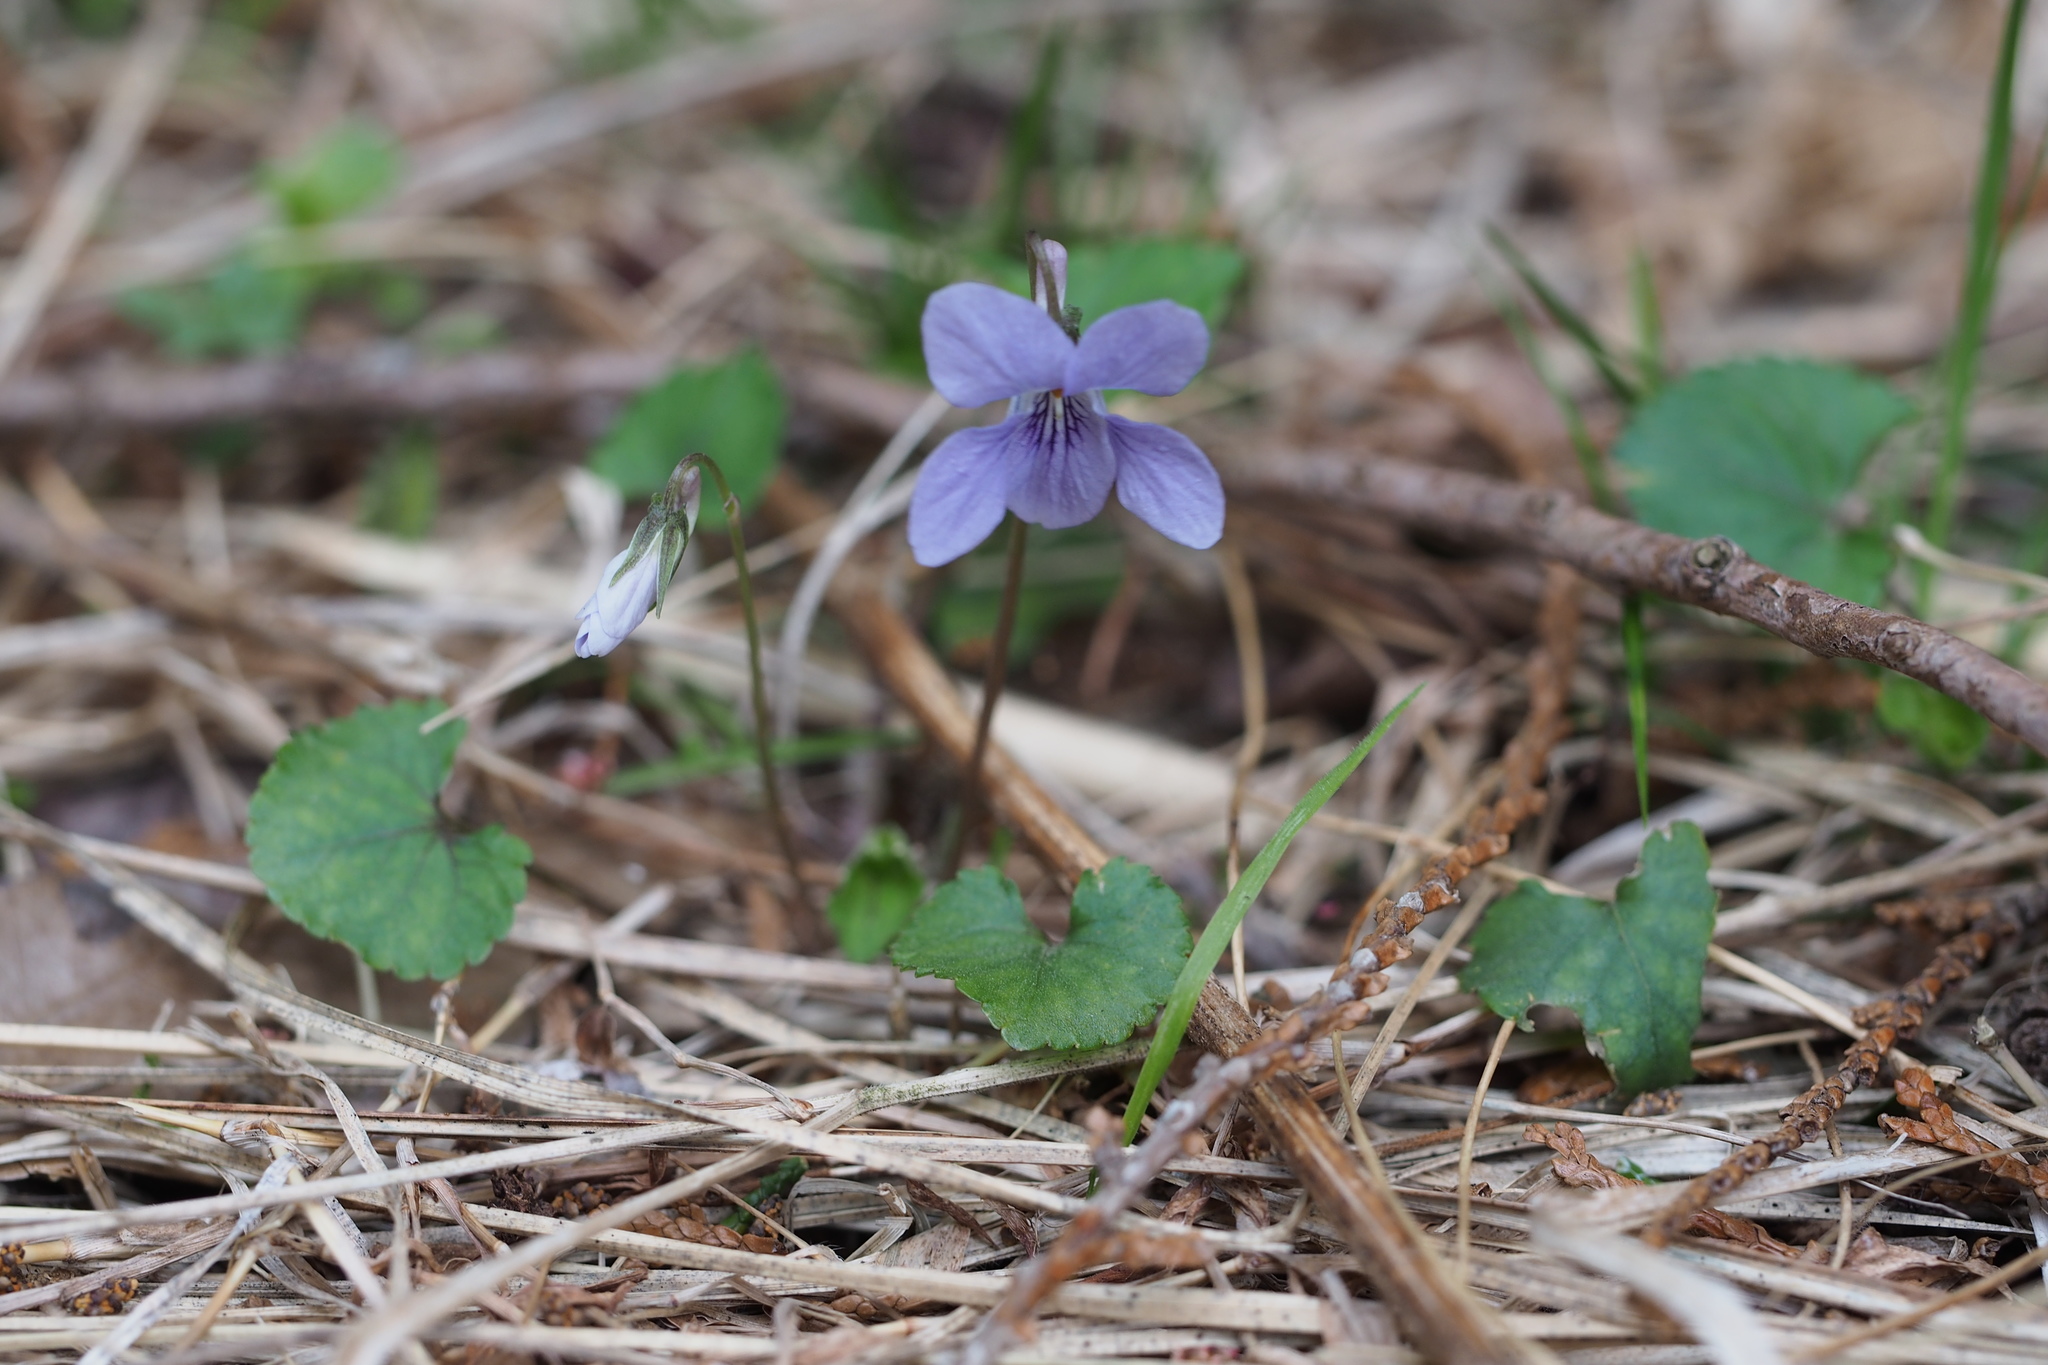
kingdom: Plantae
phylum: Tracheophyta
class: Magnoliopsida
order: Malpighiales
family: Violaceae
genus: Viola
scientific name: Viola grypoceras
